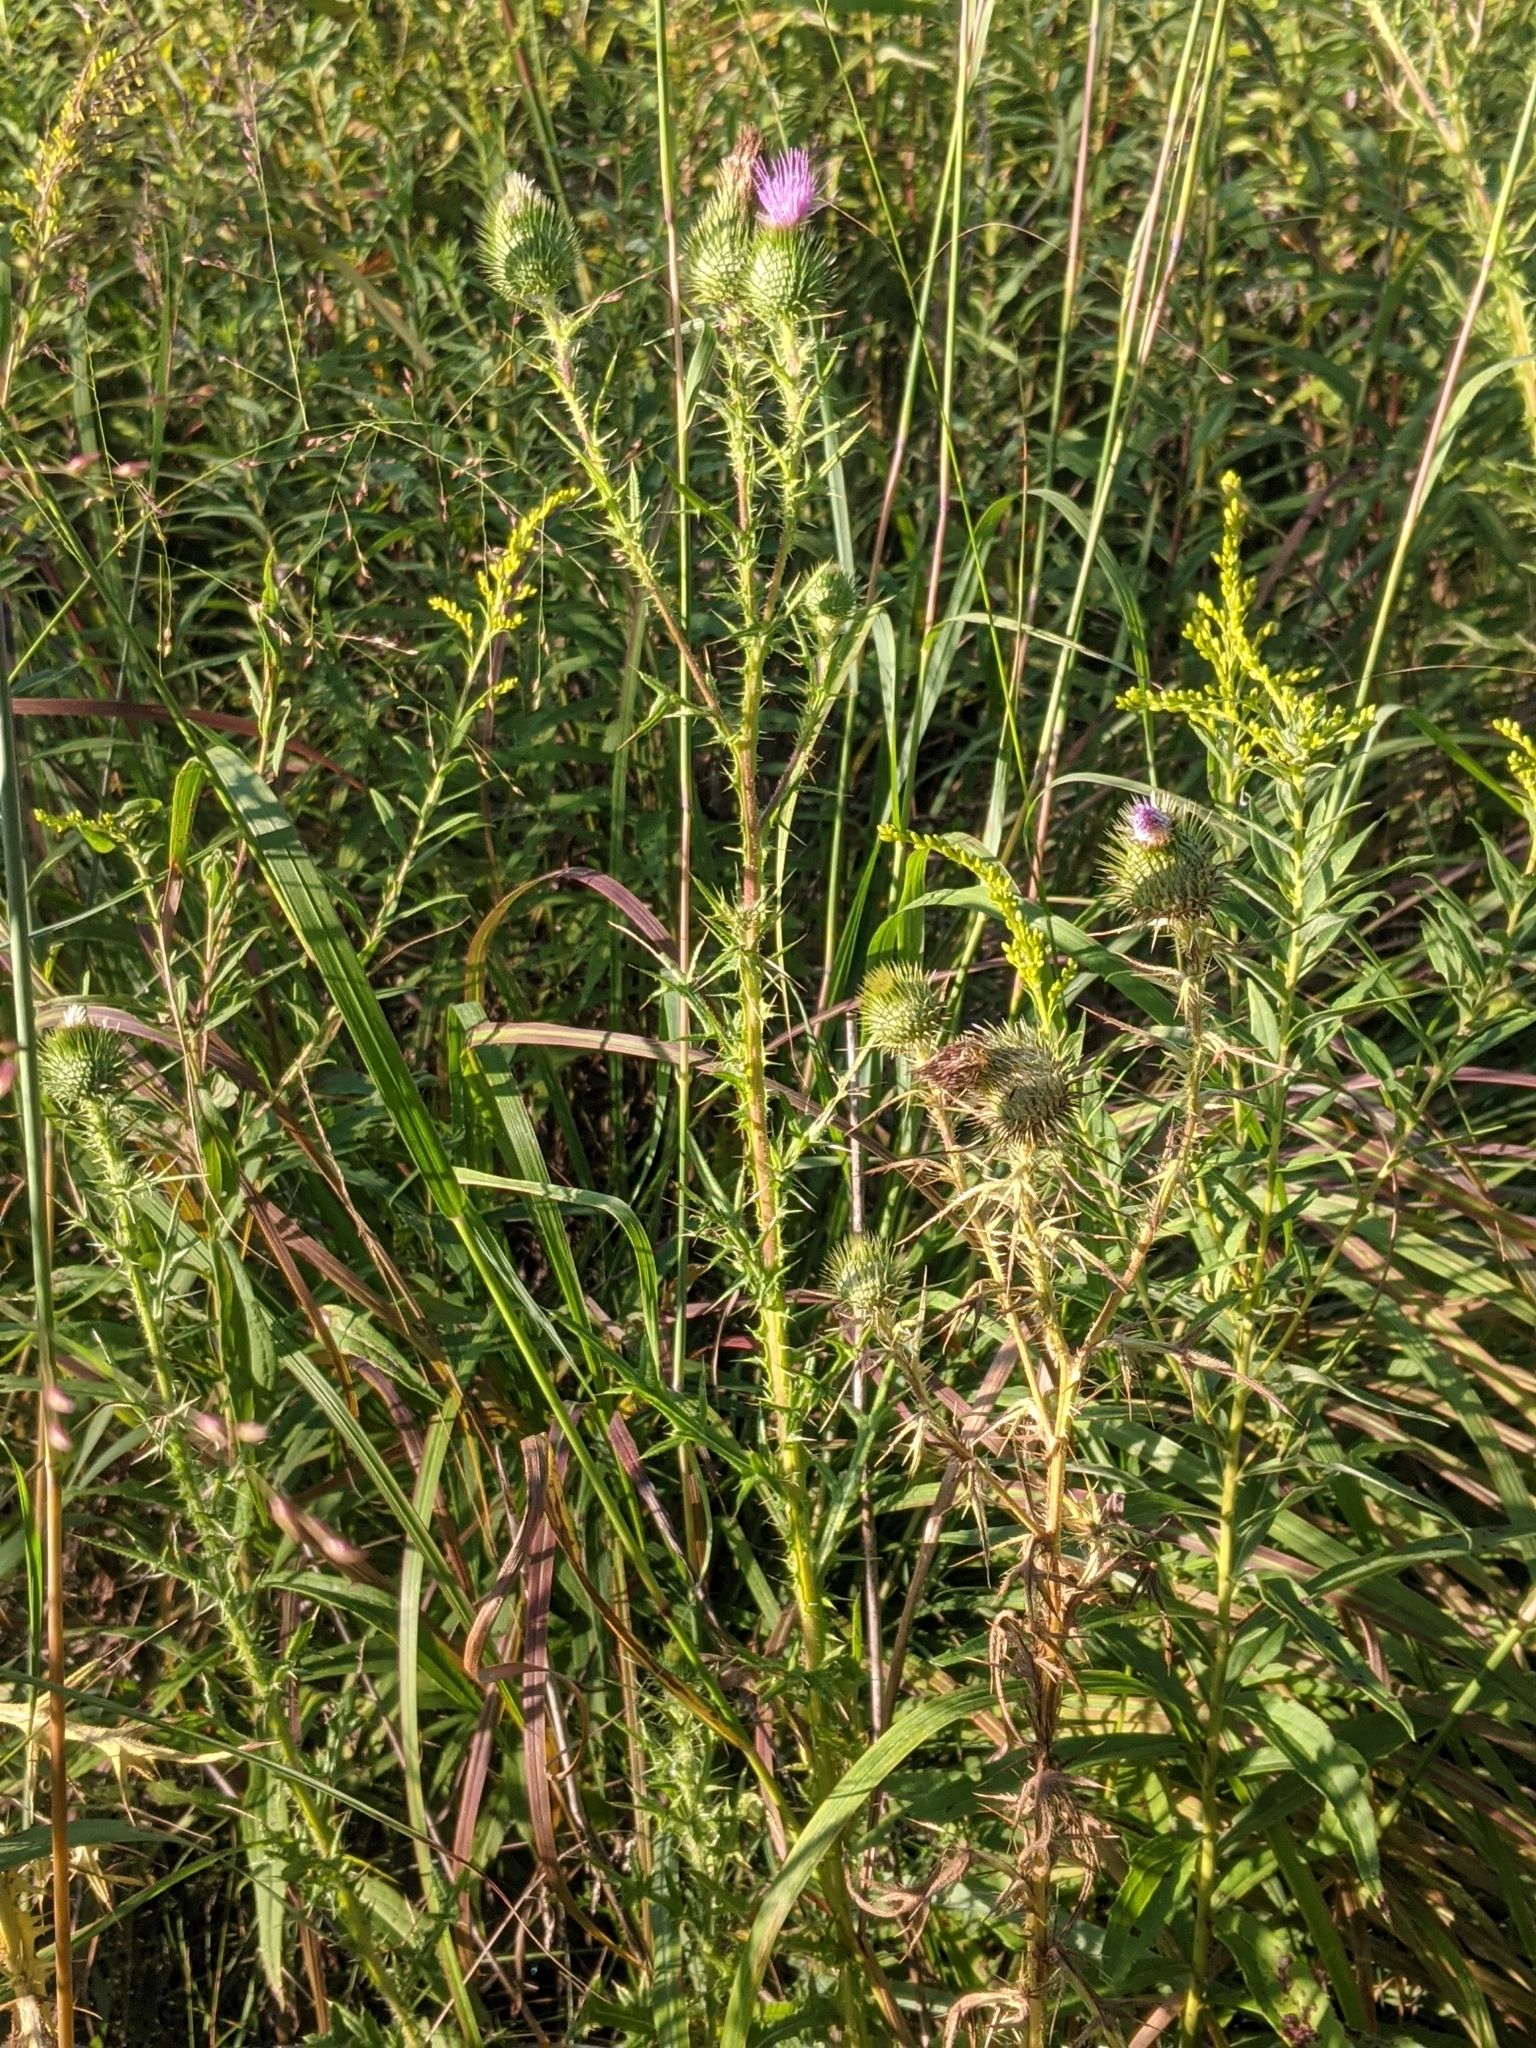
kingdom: Plantae
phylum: Tracheophyta
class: Magnoliopsida
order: Asterales
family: Asteraceae
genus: Cirsium
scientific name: Cirsium discolor
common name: Field thistle
